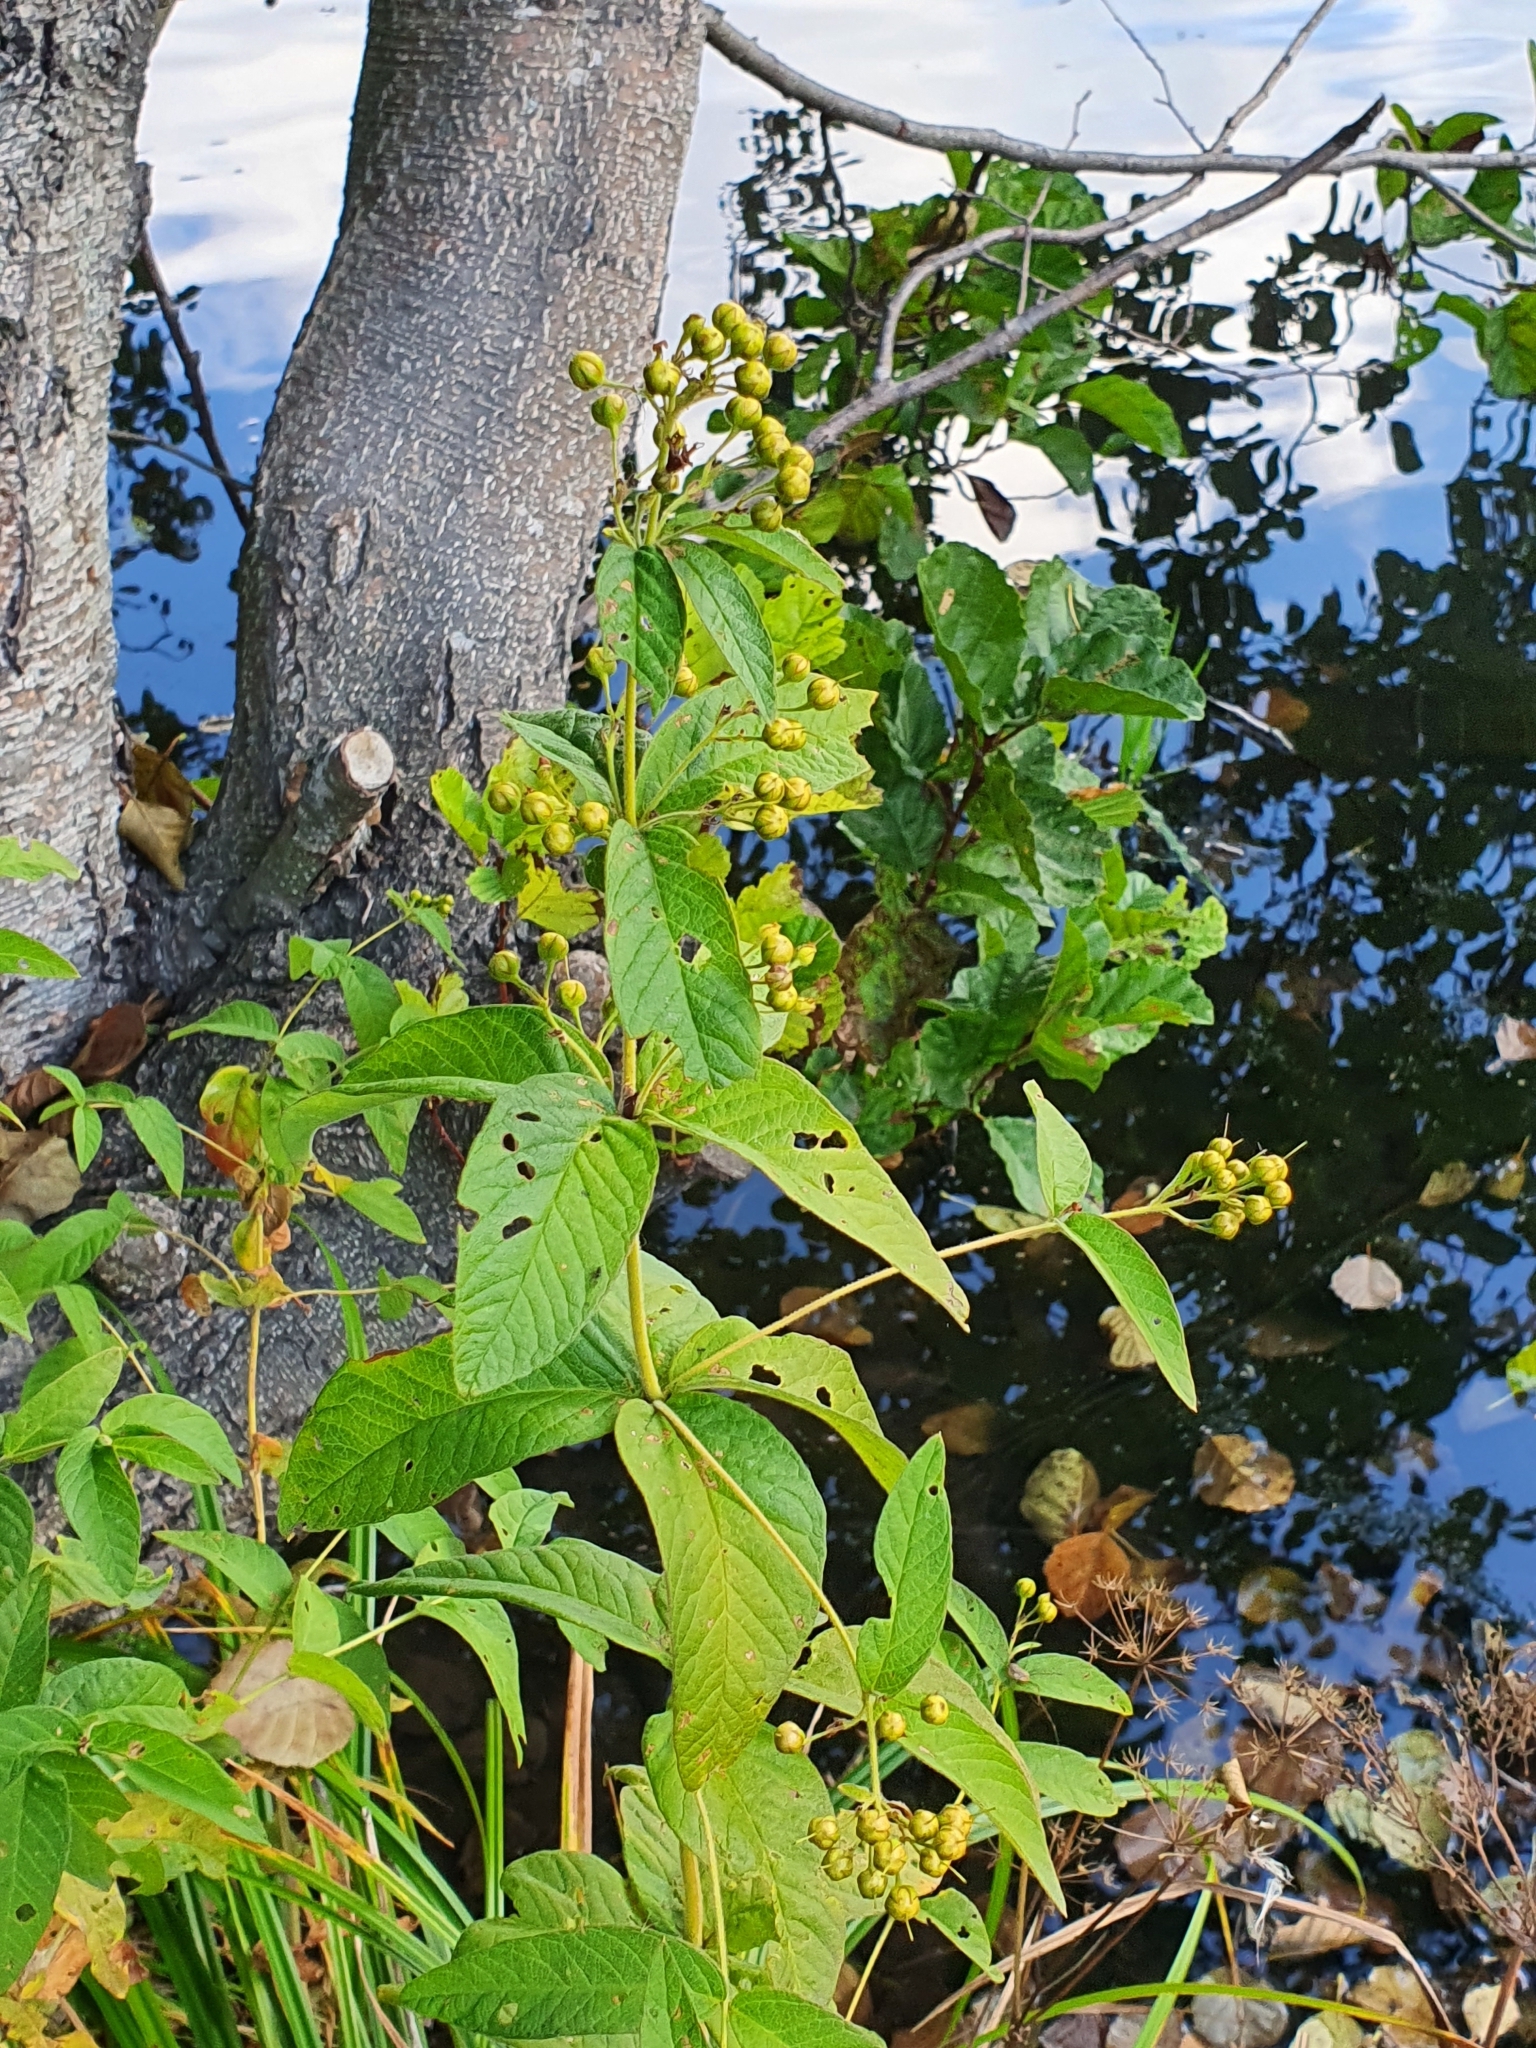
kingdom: Plantae
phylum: Tracheophyta
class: Magnoliopsida
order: Ericales
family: Primulaceae
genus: Lysimachia
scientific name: Lysimachia vulgaris
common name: Yellow loosestrife
